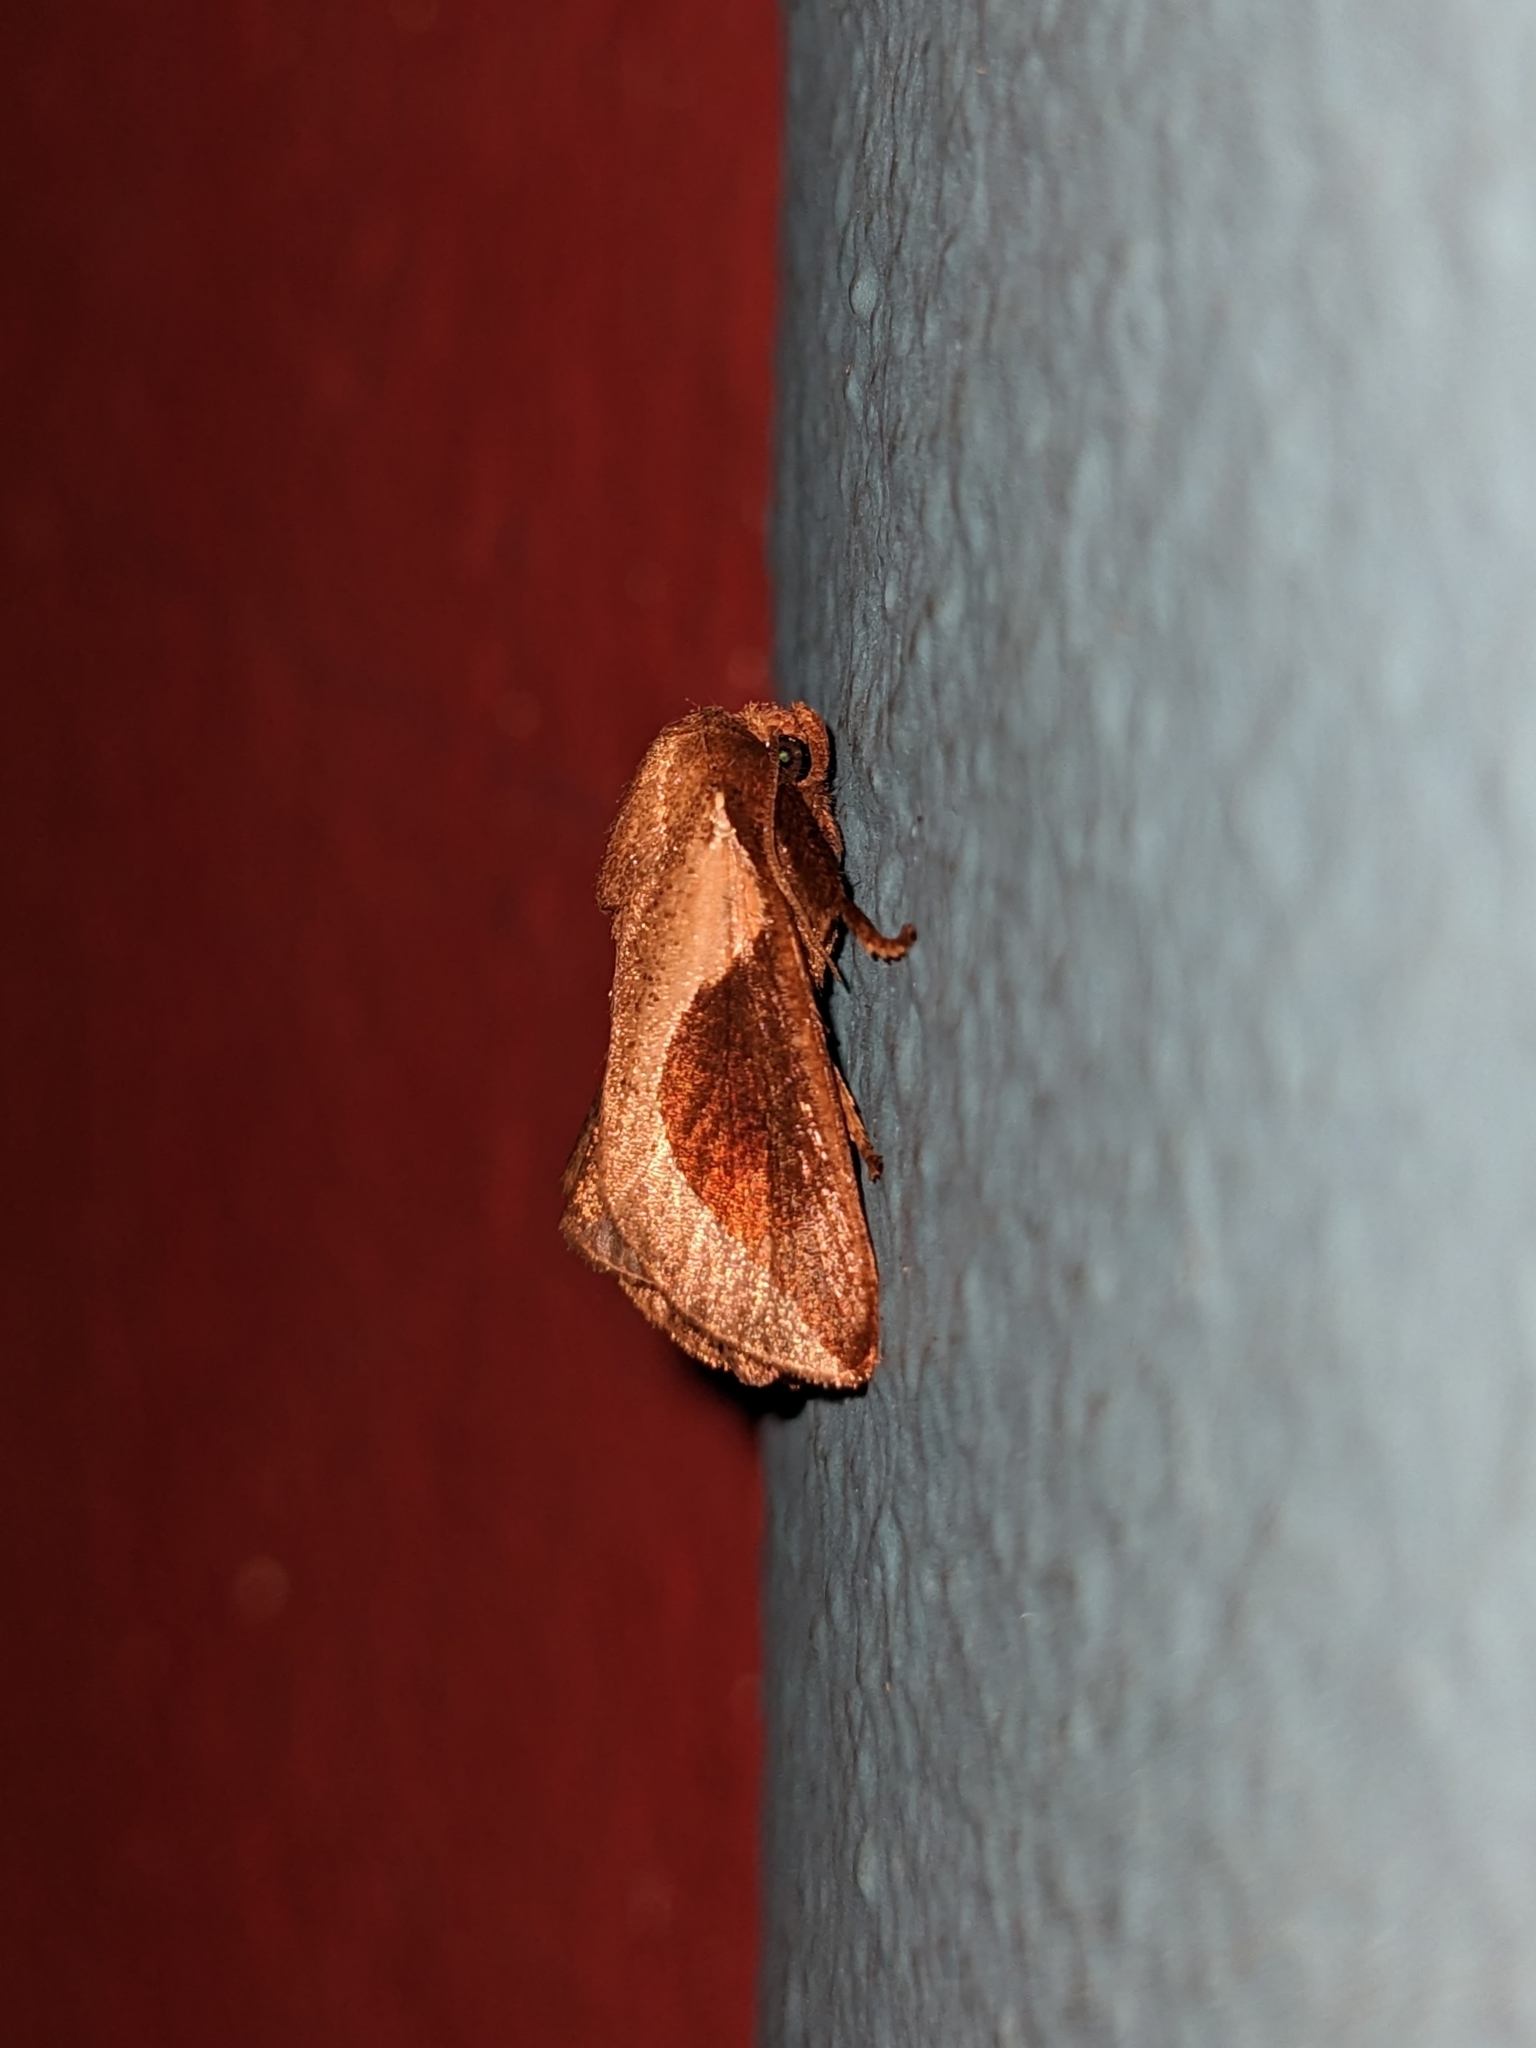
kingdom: Animalia
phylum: Arthropoda
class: Insecta
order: Lepidoptera
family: Limacodidae
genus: Prolimacodes
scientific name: Prolimacodes badia
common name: Skiff moth
